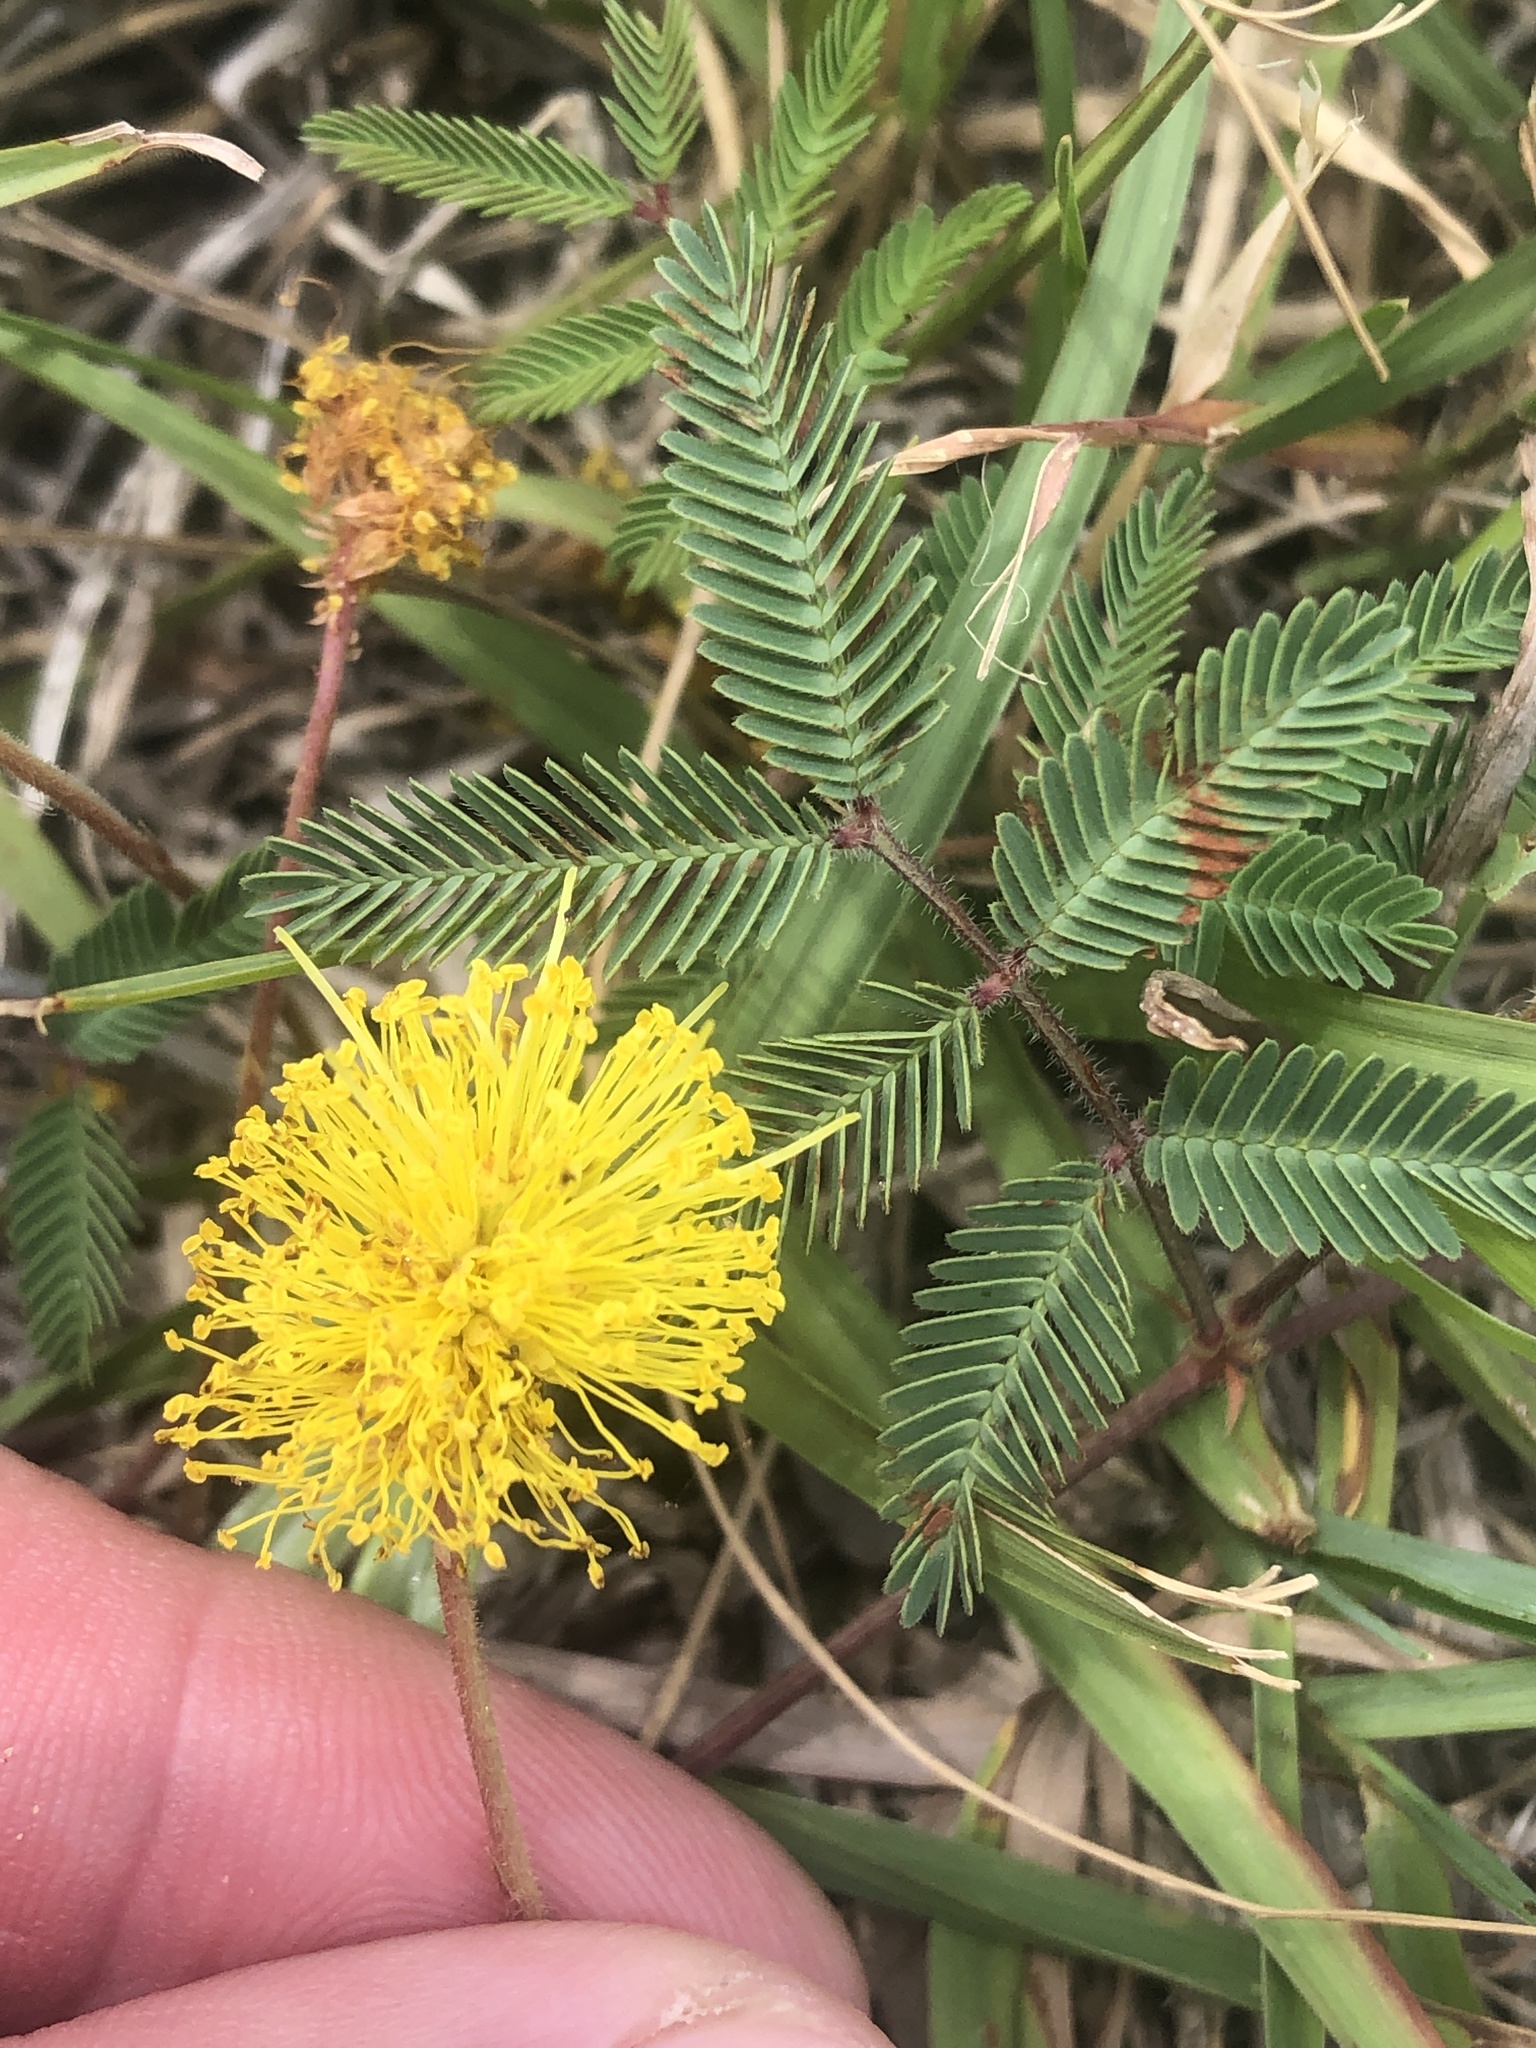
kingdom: Plantae
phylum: Tracheophyta
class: Magnoliopsida
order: Fabales
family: Fabaceae
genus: Neptunia
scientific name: Neptunia lutea
